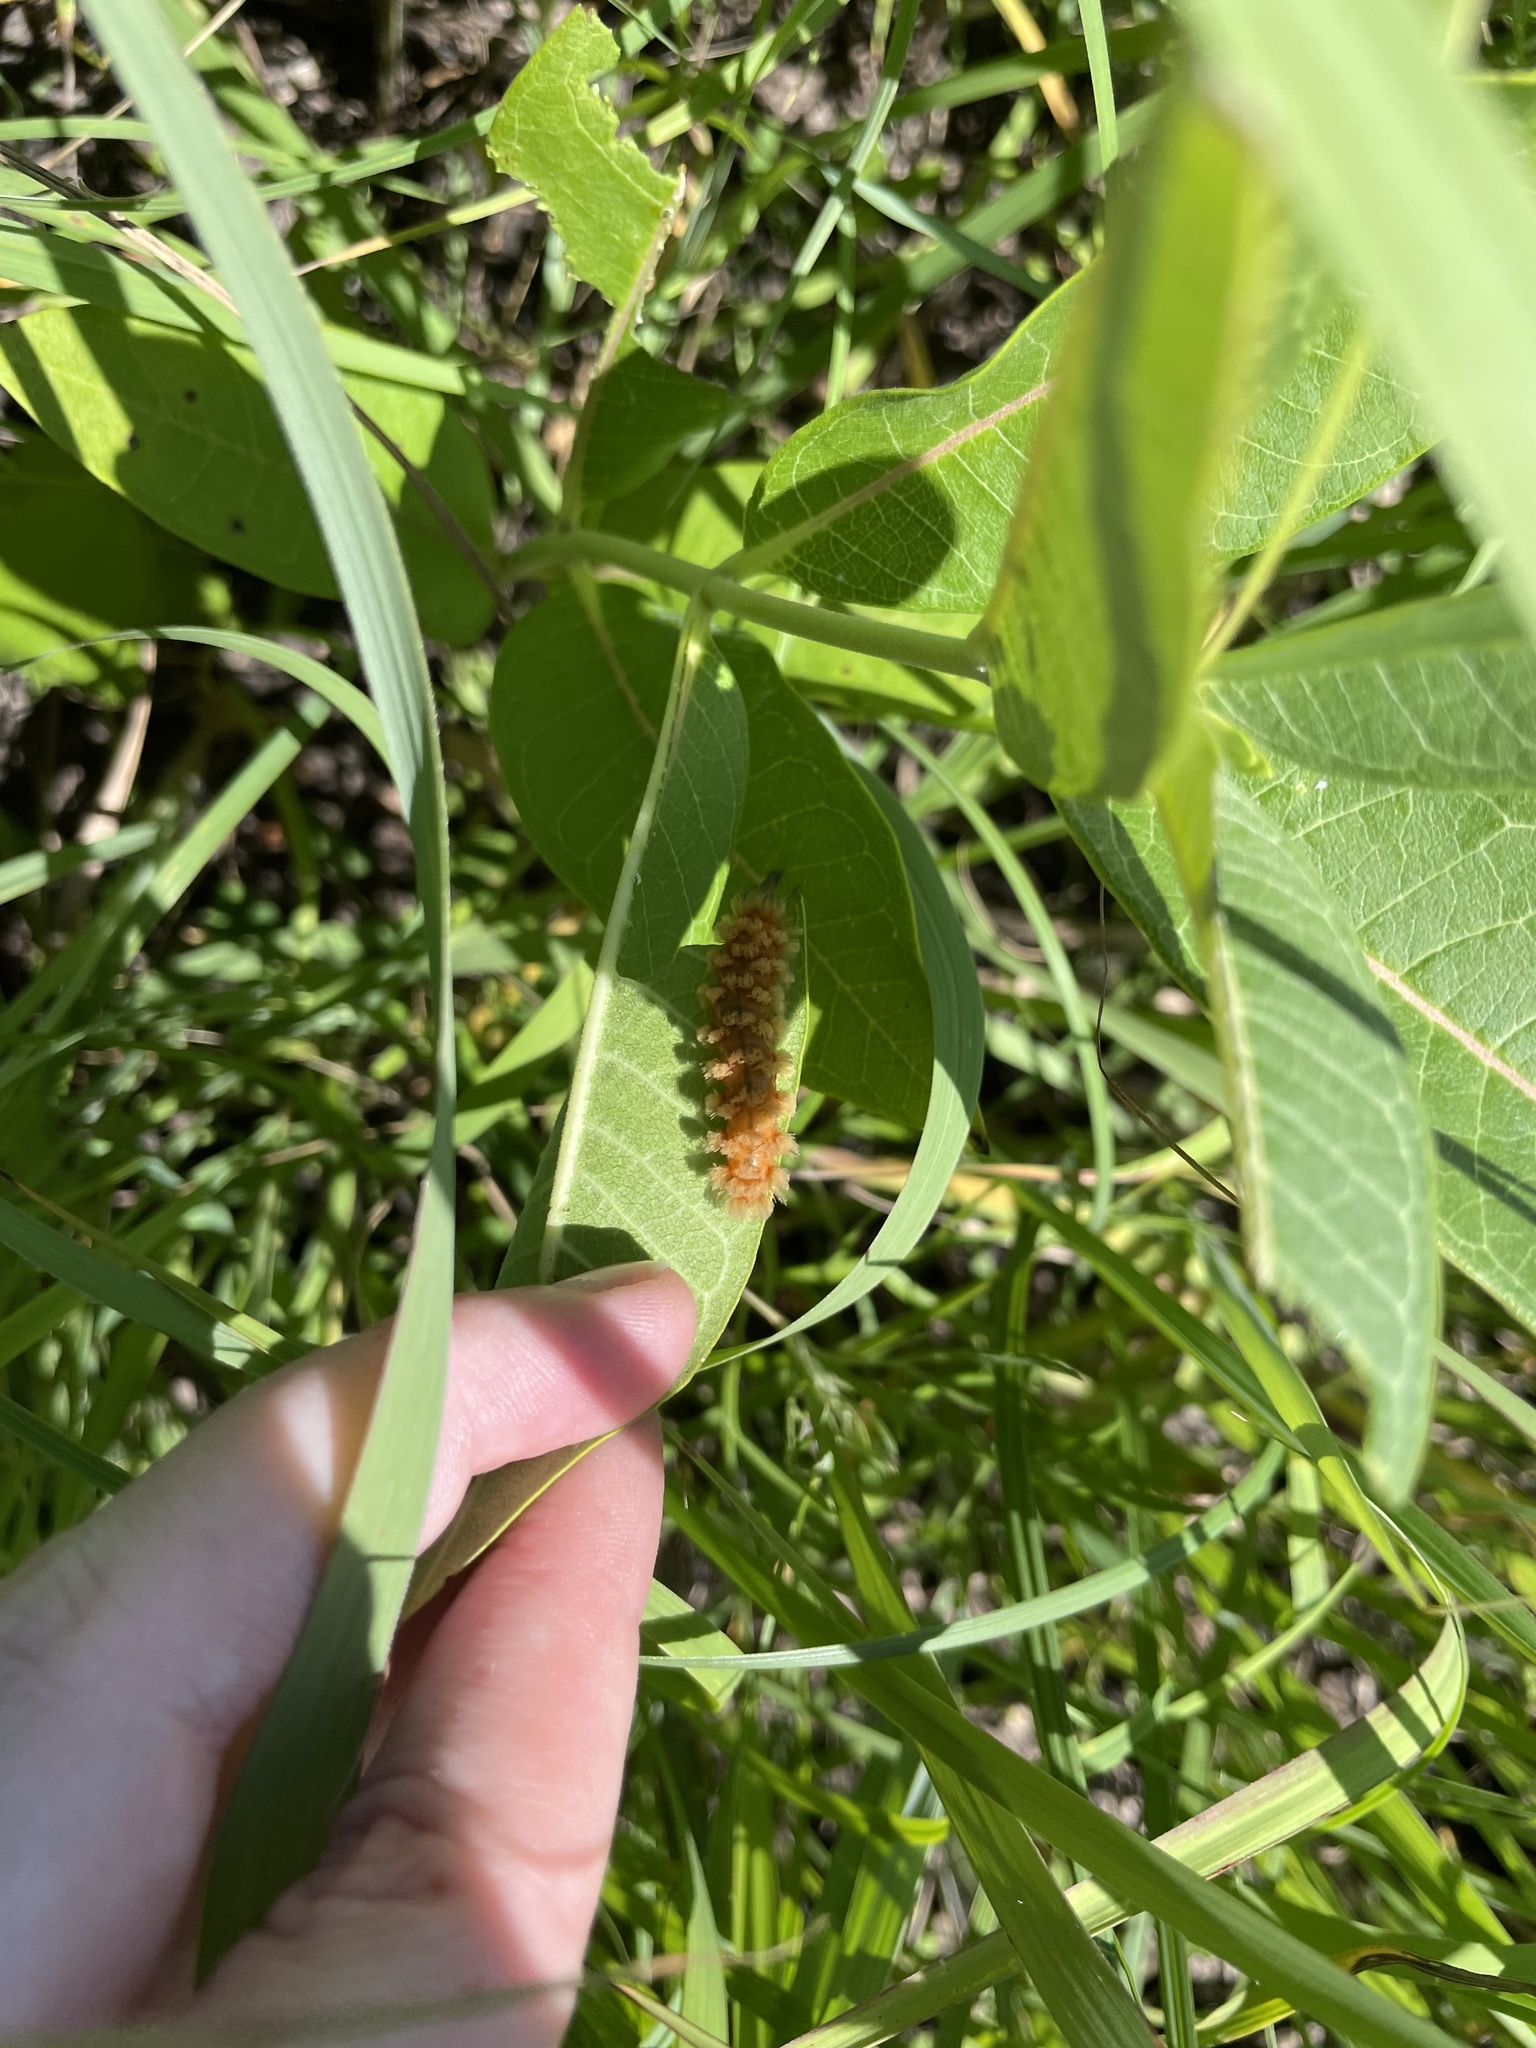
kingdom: Animalia
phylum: Arthropoda
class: Insecta
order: Lepidoptera
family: Erebidae
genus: Cycnia
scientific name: Cycnia collaris
